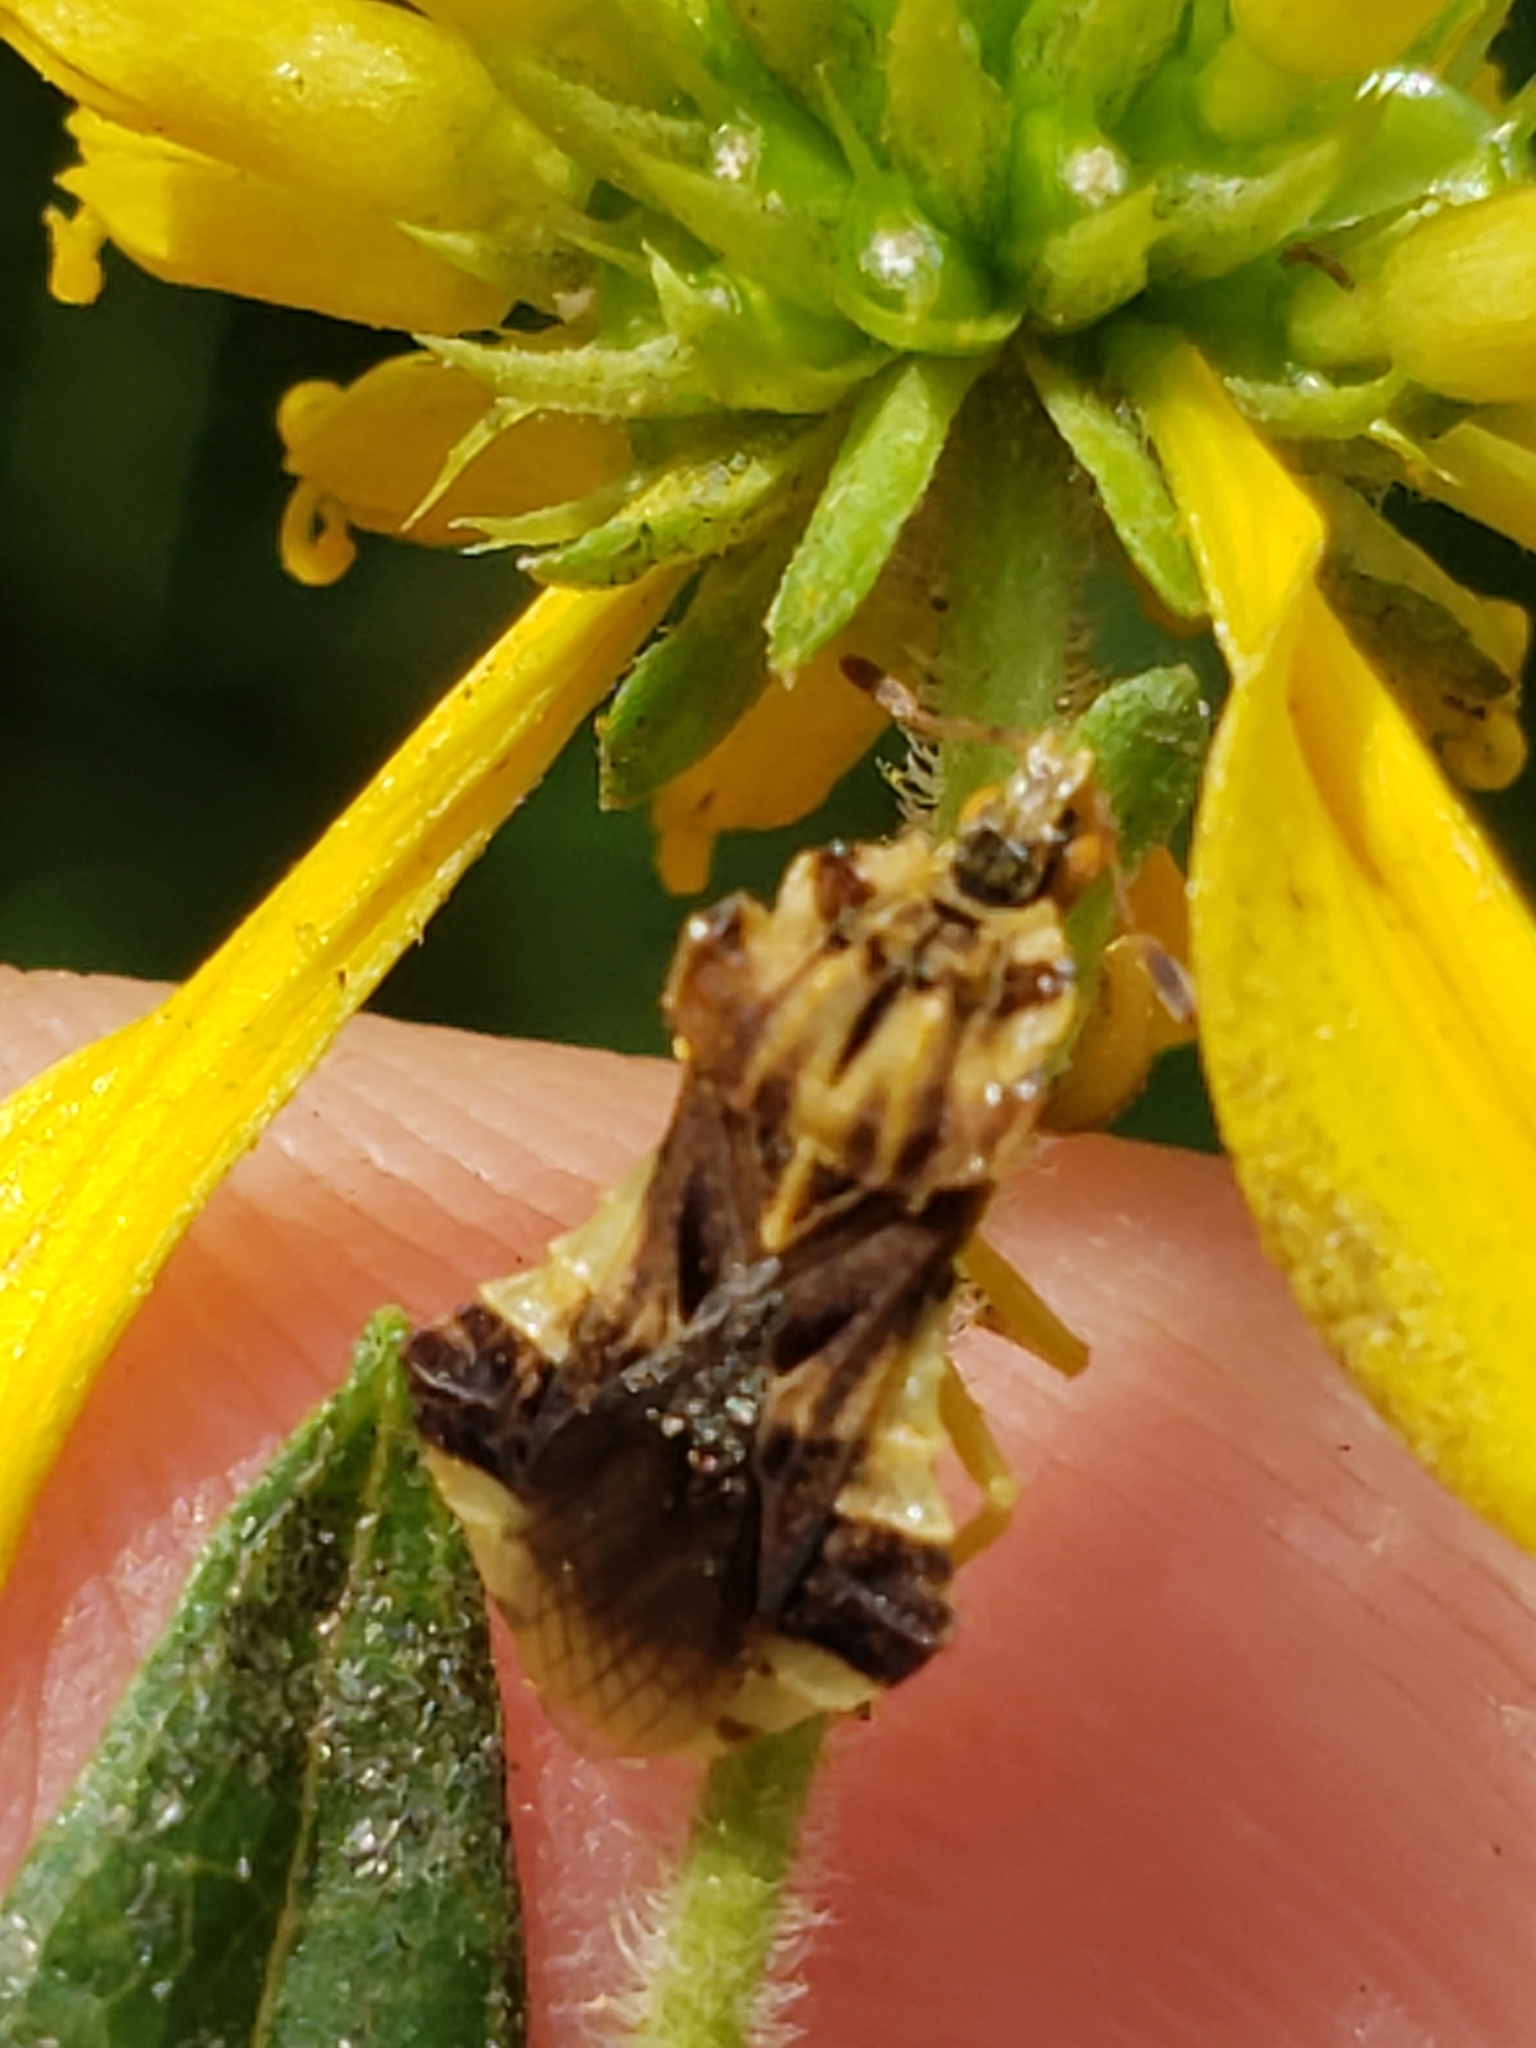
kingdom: Animalia
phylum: Arthropoda
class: Insecta
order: Hemiptera
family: Reduviidae
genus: Phymata
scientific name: Phymata fasciata
